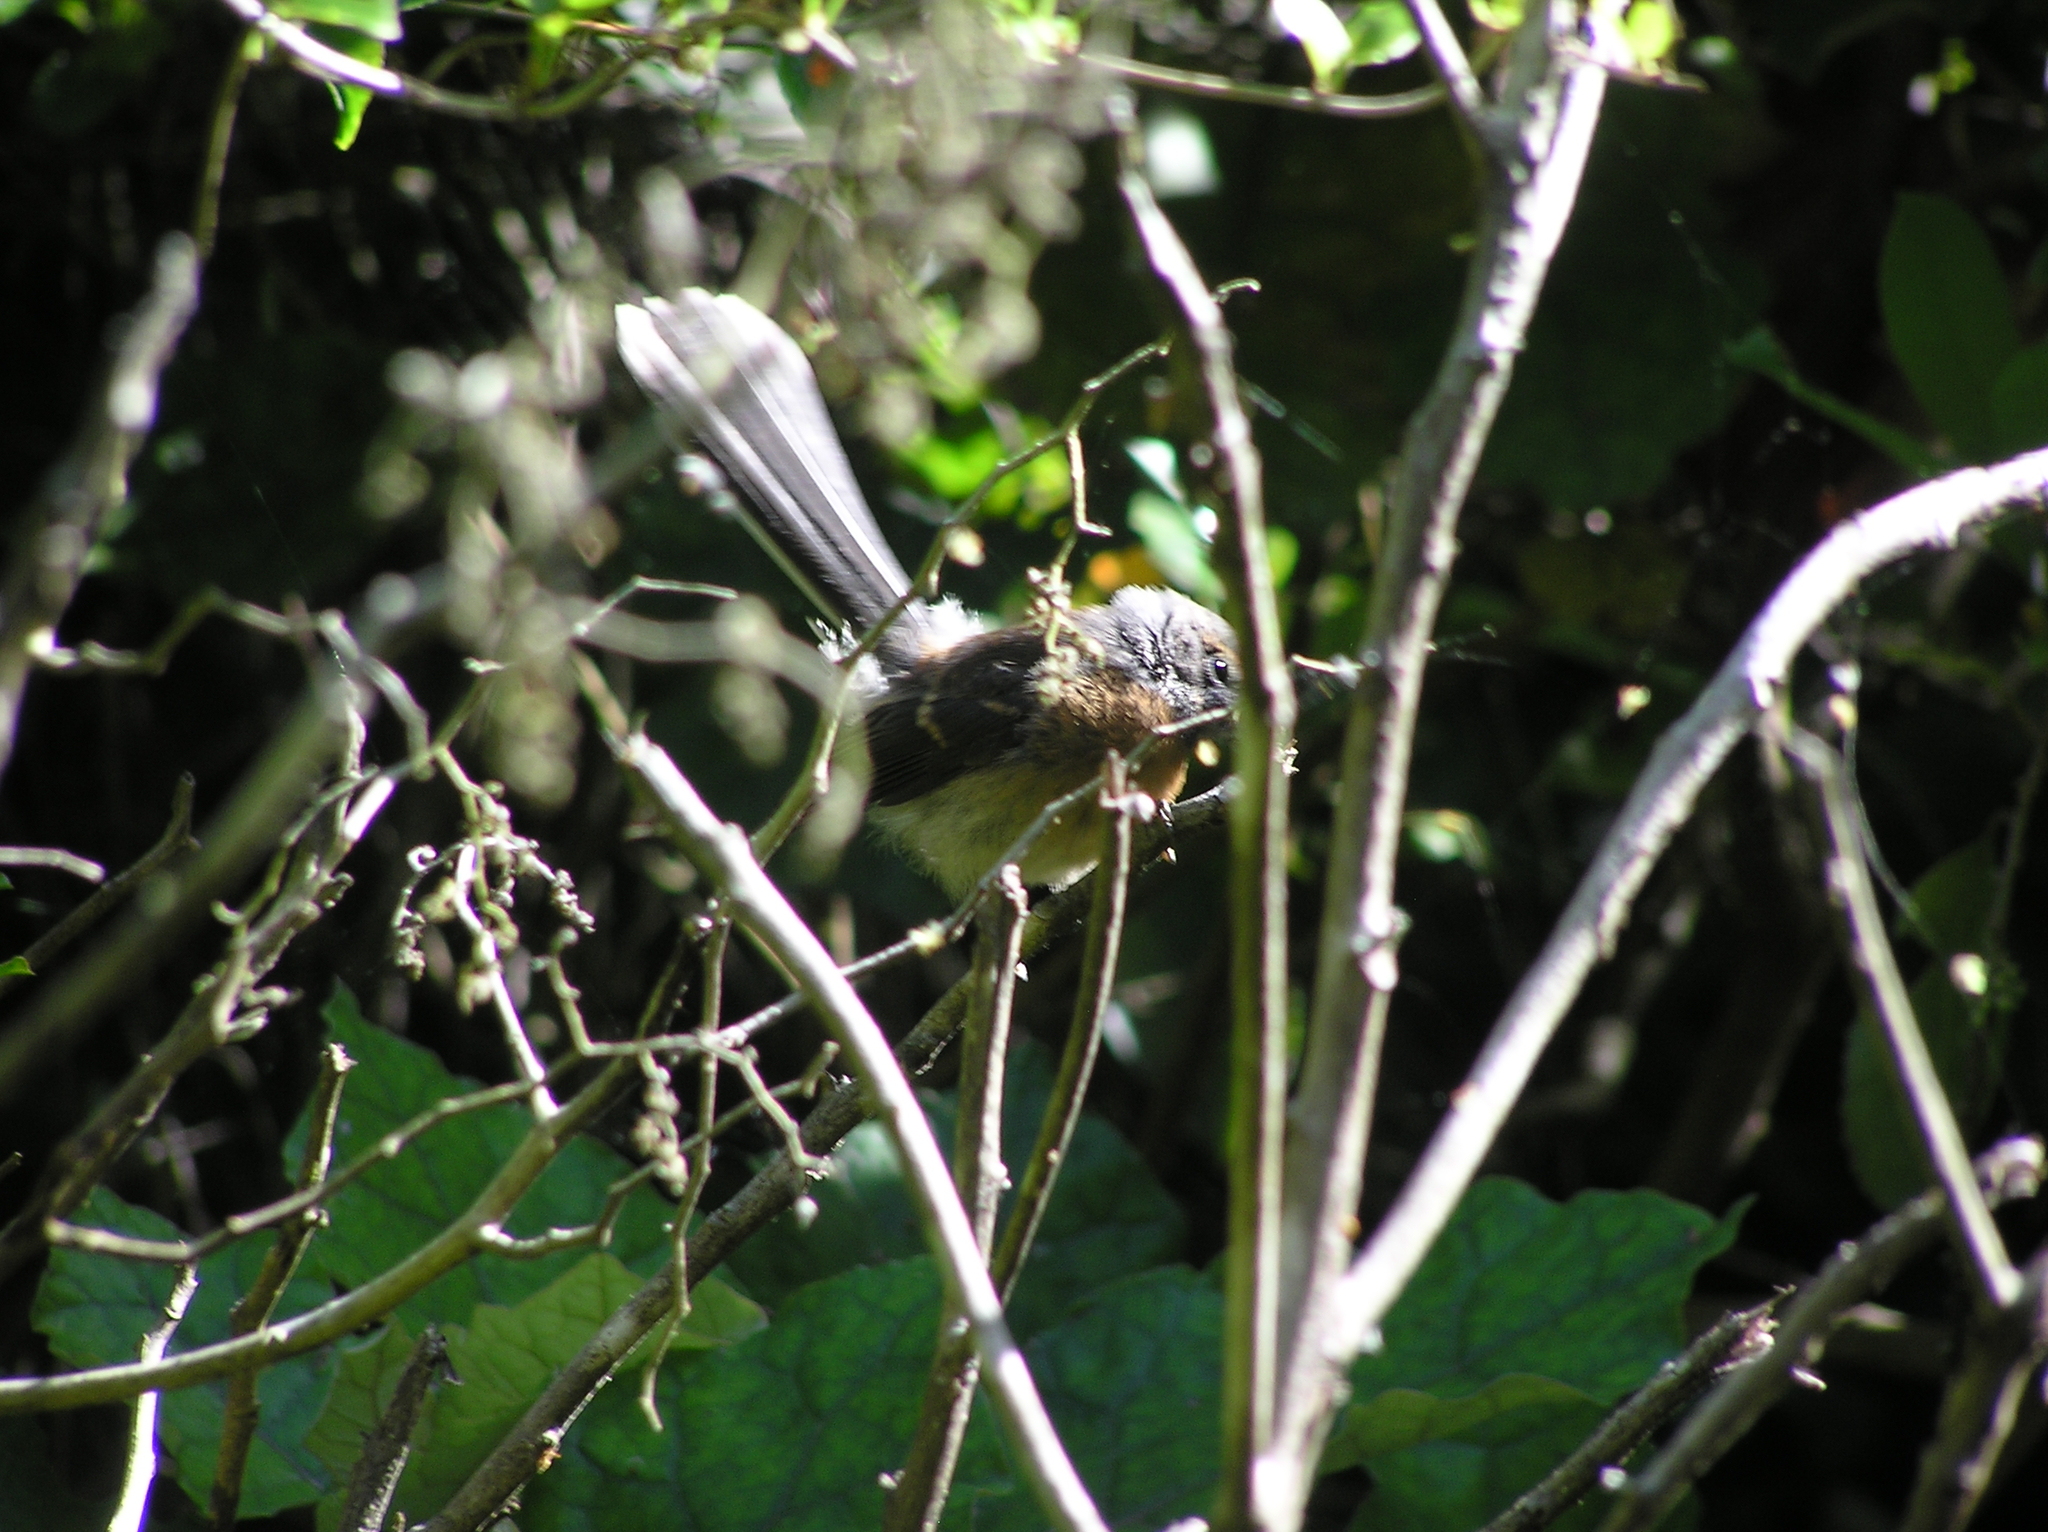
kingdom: Animalia
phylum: Chordata
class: Aves
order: Passeriformes
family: Rhipiduridae
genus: Rhipidura
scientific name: Rhipidura fuliginosa
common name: New zealand fantail
